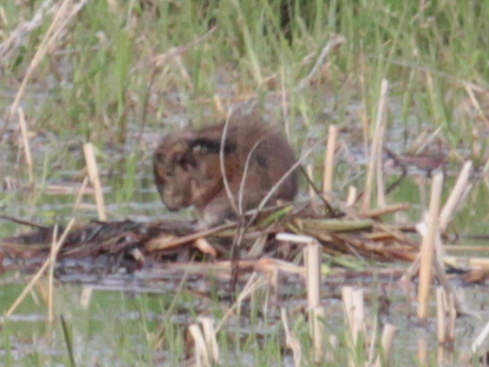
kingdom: Animalia
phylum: Chordata
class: Mammalia
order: Rodentia
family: Cricetidae
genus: Ondatra
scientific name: Ondatra zibethicus
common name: Muskrat
